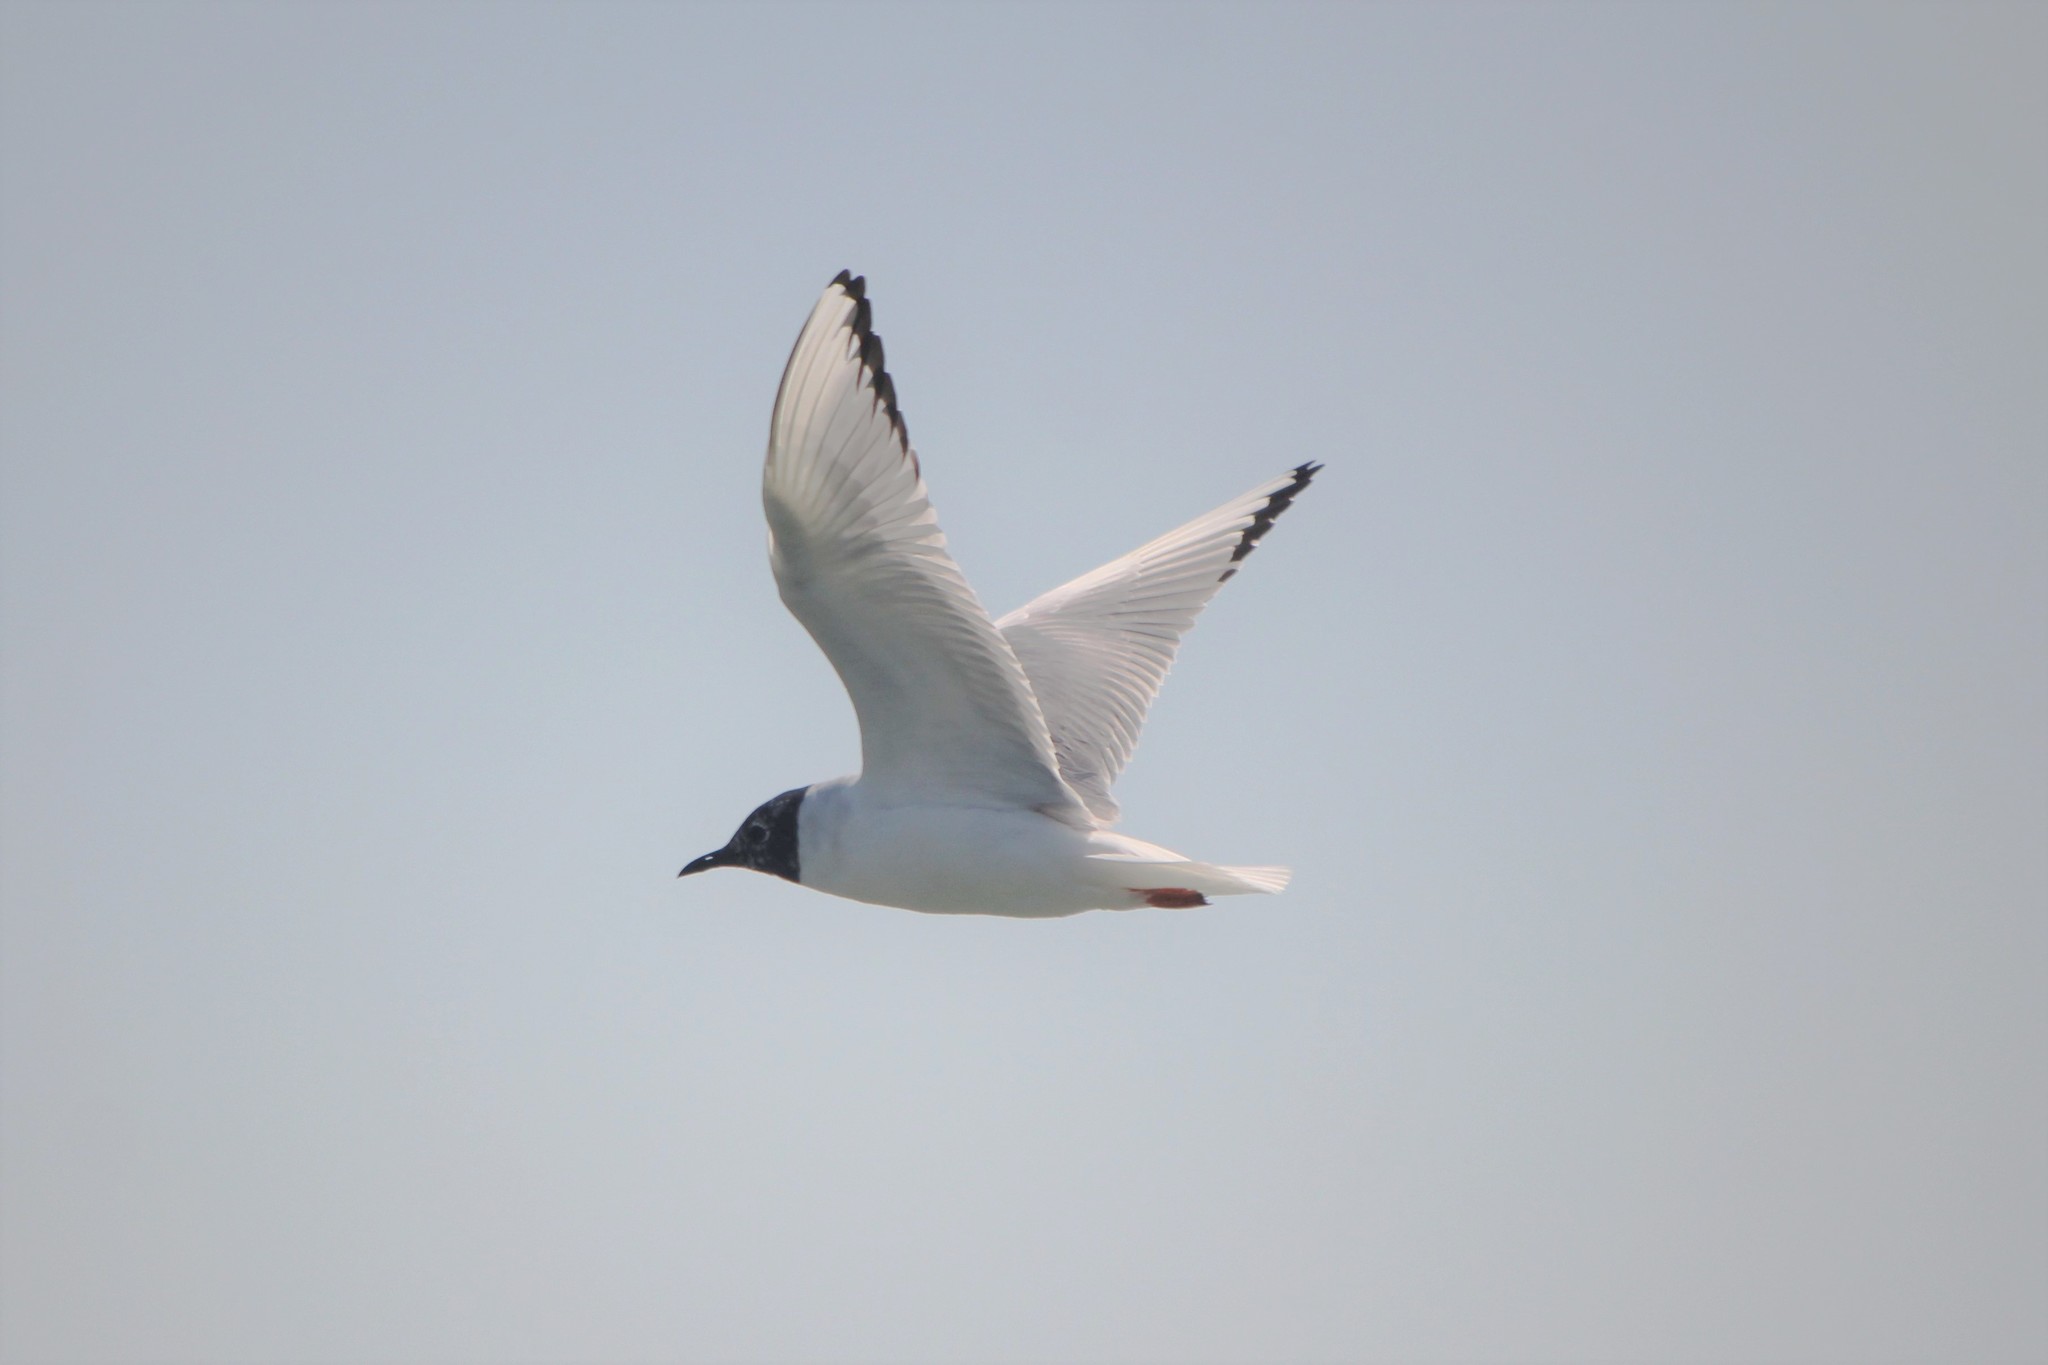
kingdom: Animalia
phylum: Chordata
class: Aves
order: Charadriiformes
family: Laridae
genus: Chroicocephalus
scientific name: Chroicocephalus philadelphia
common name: Bonaparte's gull
